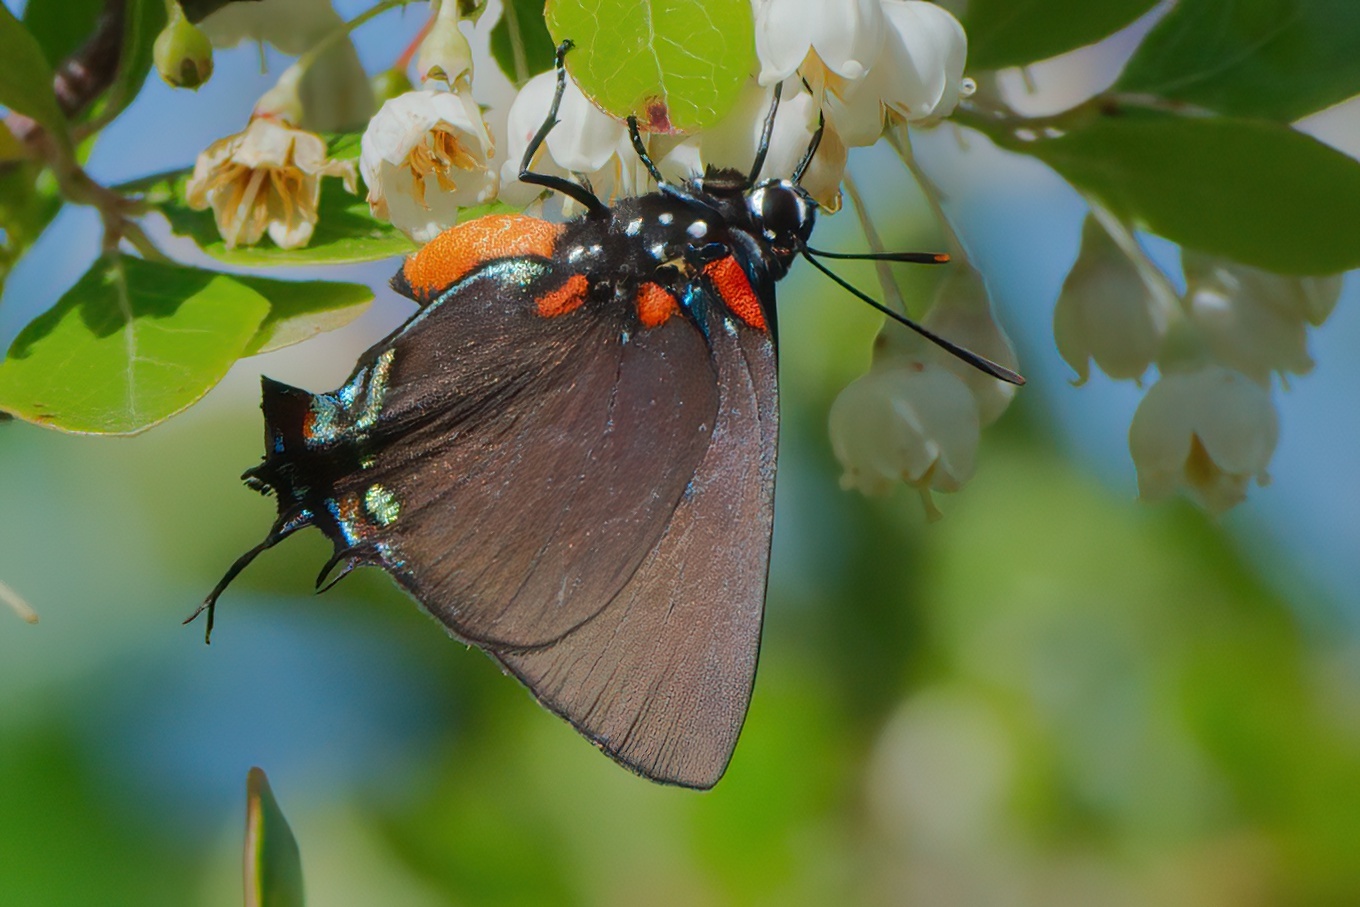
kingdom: Animalia
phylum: Arthropoda
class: Insecta
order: Lepidoptera
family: Lycaenidae
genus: Atlides
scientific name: Atlides halesus
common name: Great purple hairstreak
